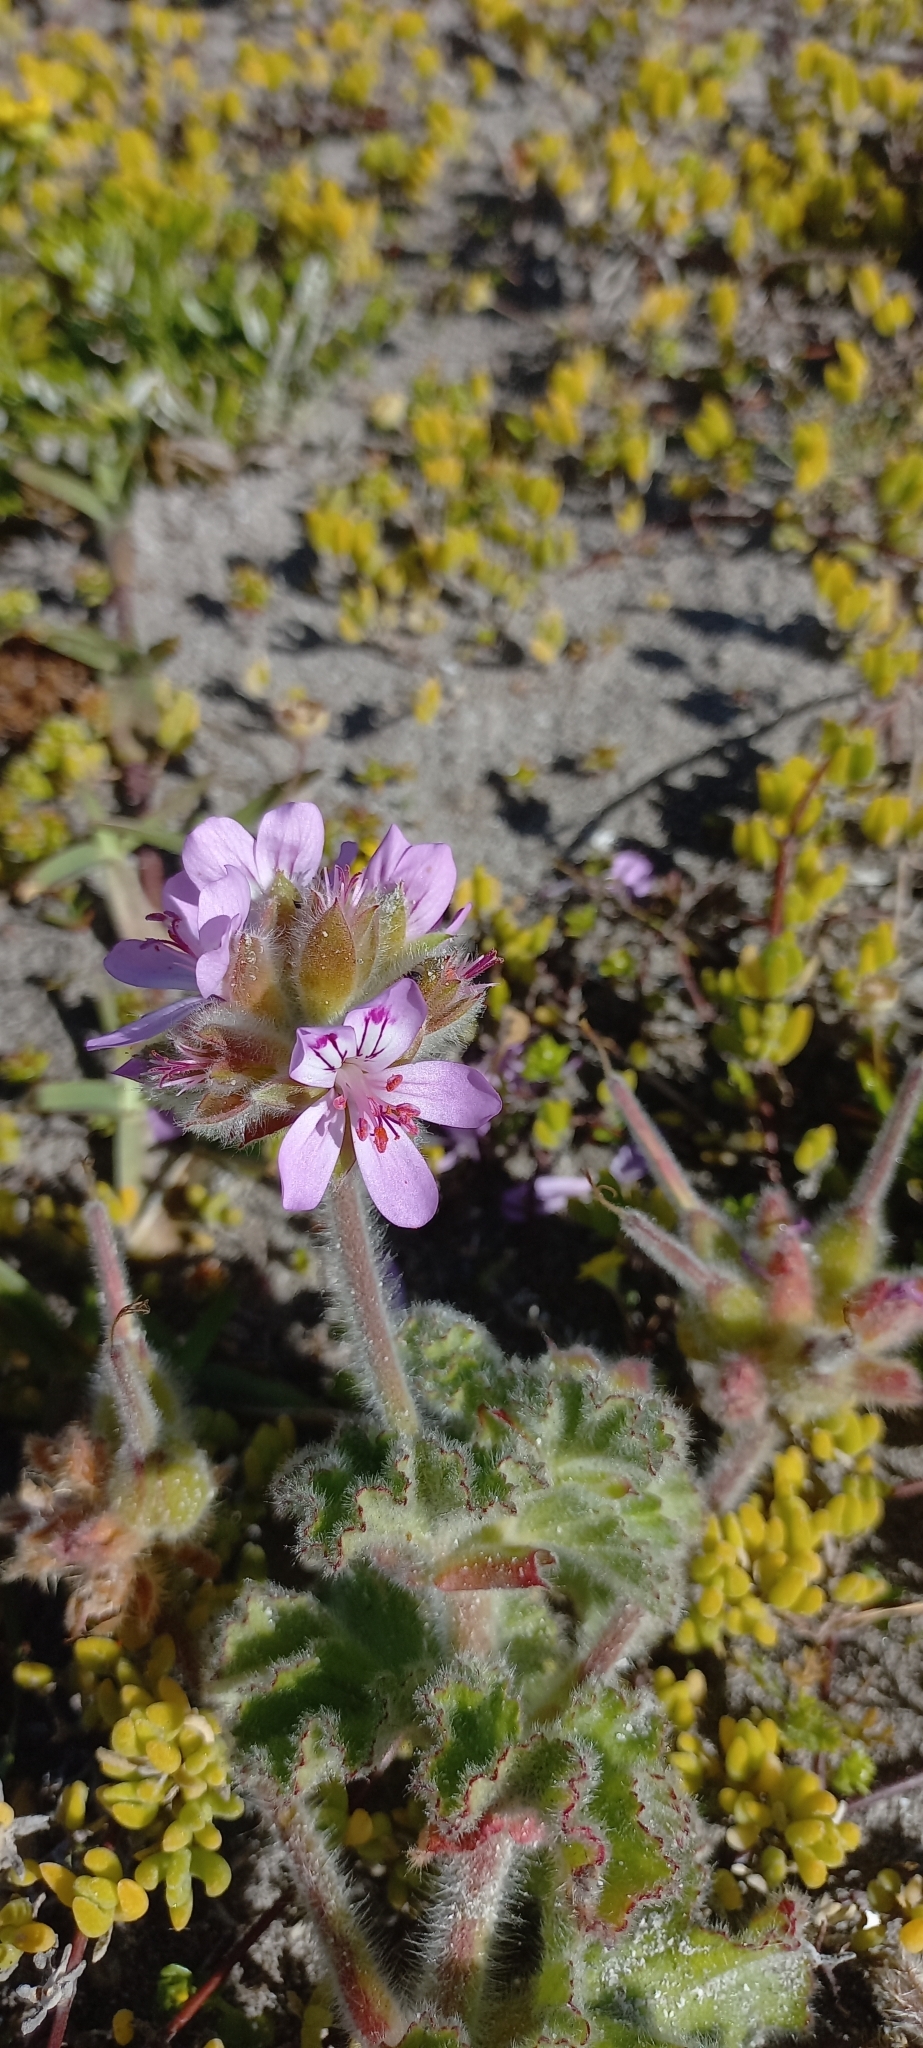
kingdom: Plantae
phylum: Tracheophyta
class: Magnoliopsida
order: Geraniales
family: Geraniaceae
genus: Pelargonium
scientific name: Pelargonium capitatum
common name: Rose scented geranium
